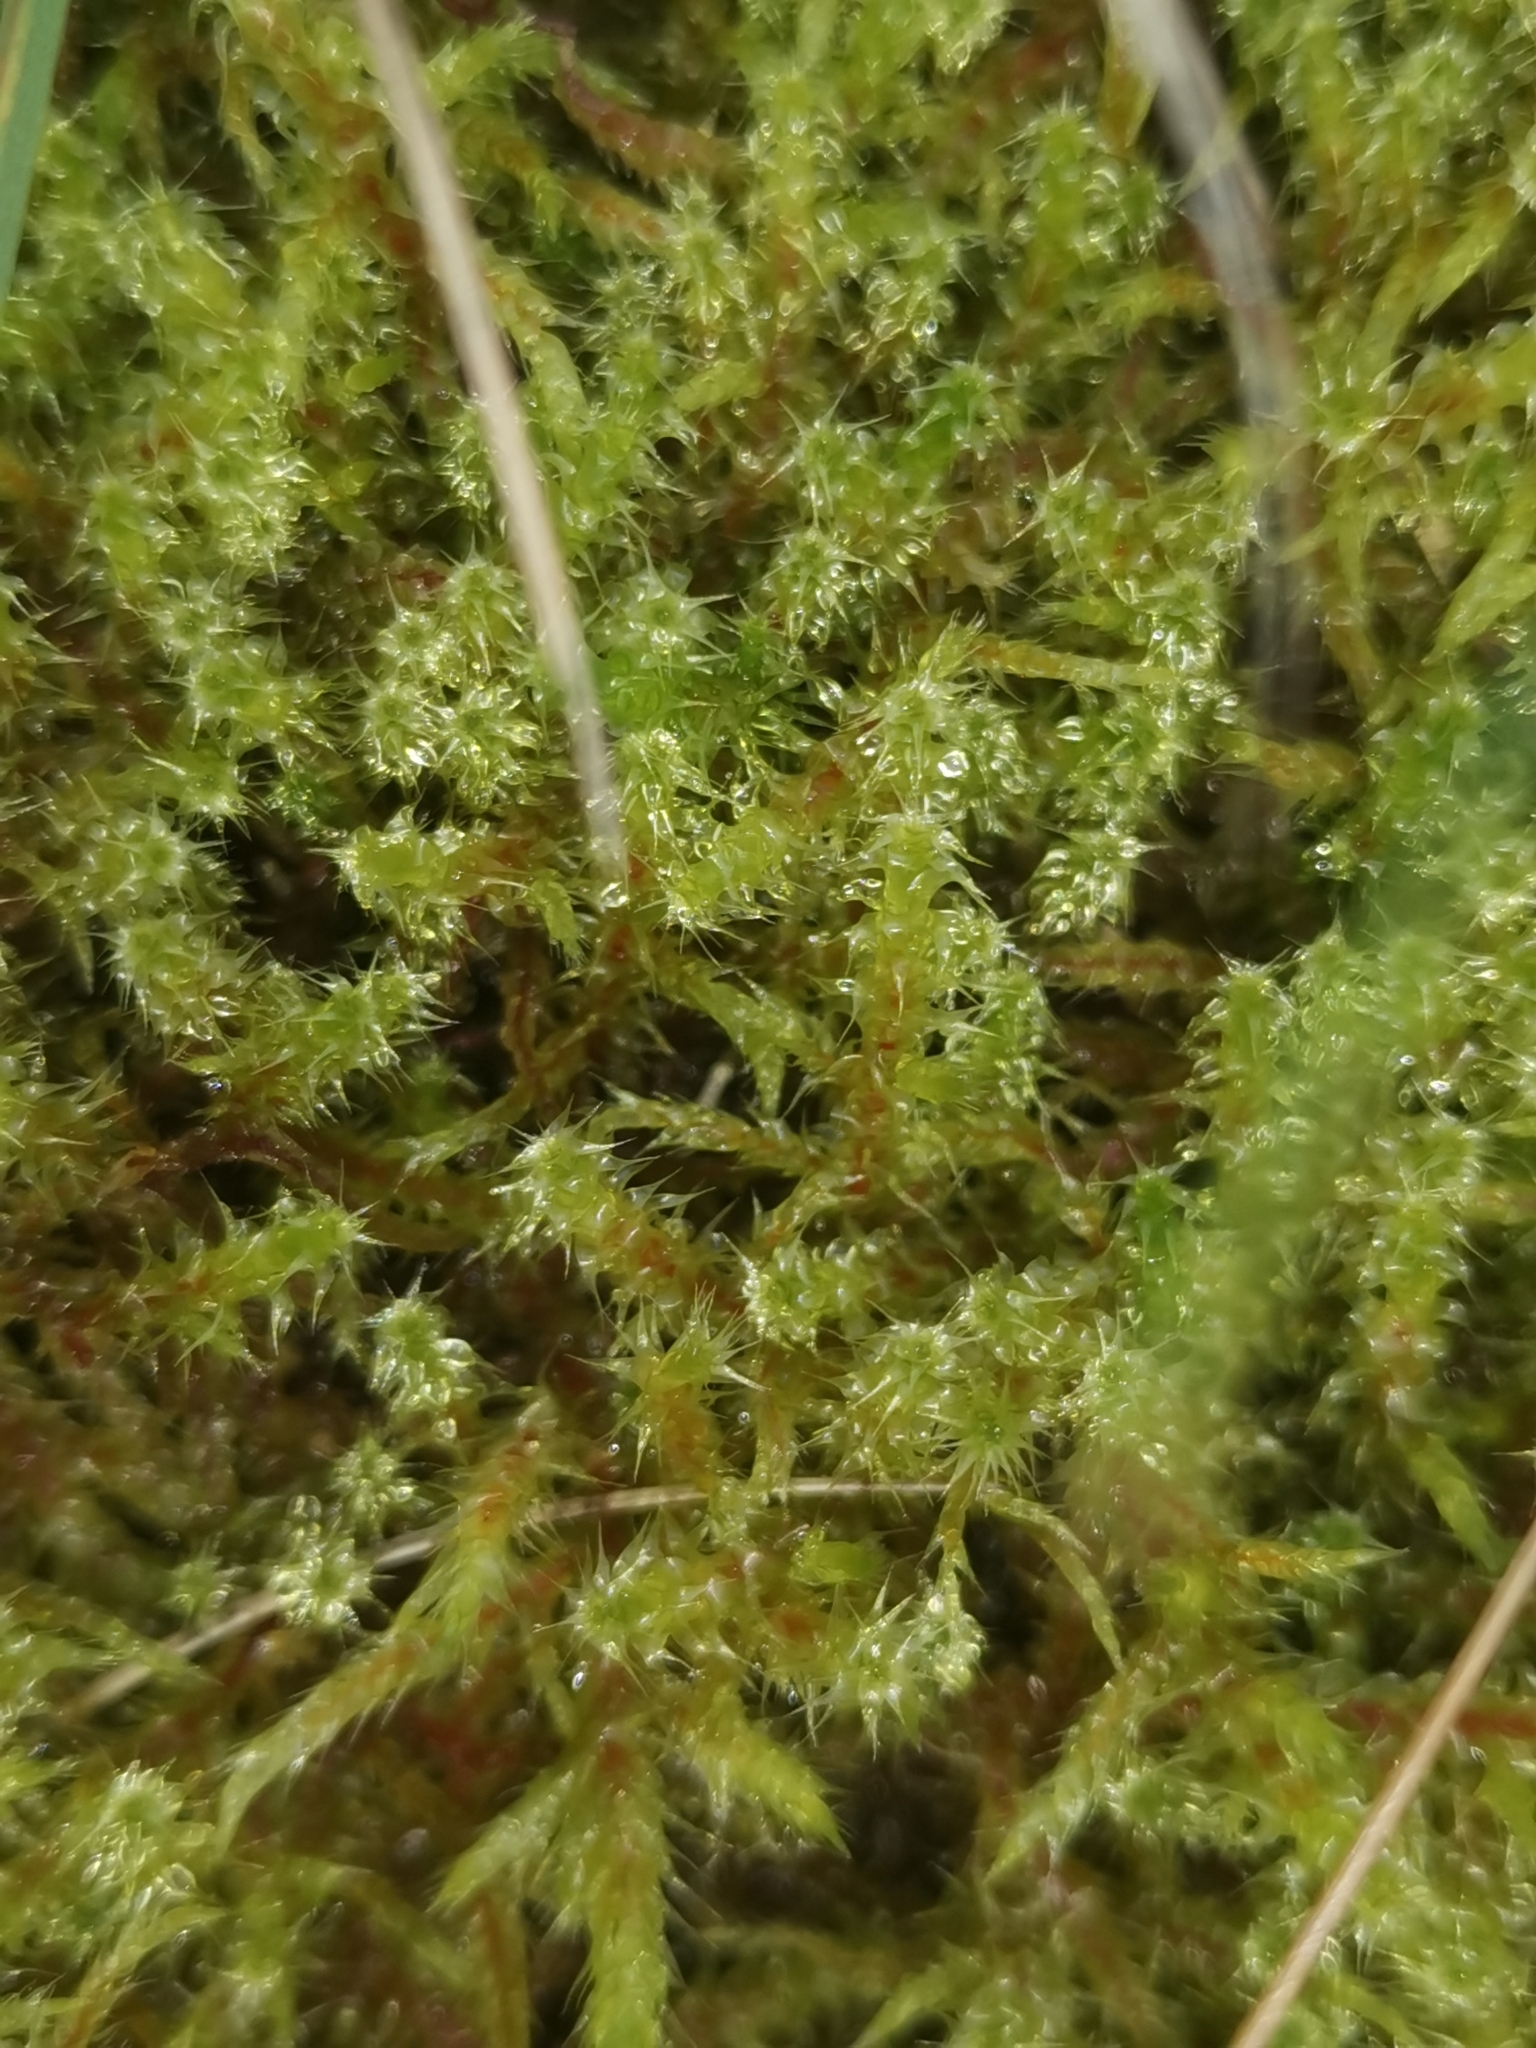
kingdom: Plantae
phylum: Bryophyta
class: Bryopsida
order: Hypnales
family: Hylocomiaceae
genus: Rhytidiadelphus
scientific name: Rhytidiadelphus squarrosus
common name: Springy turf-moss
